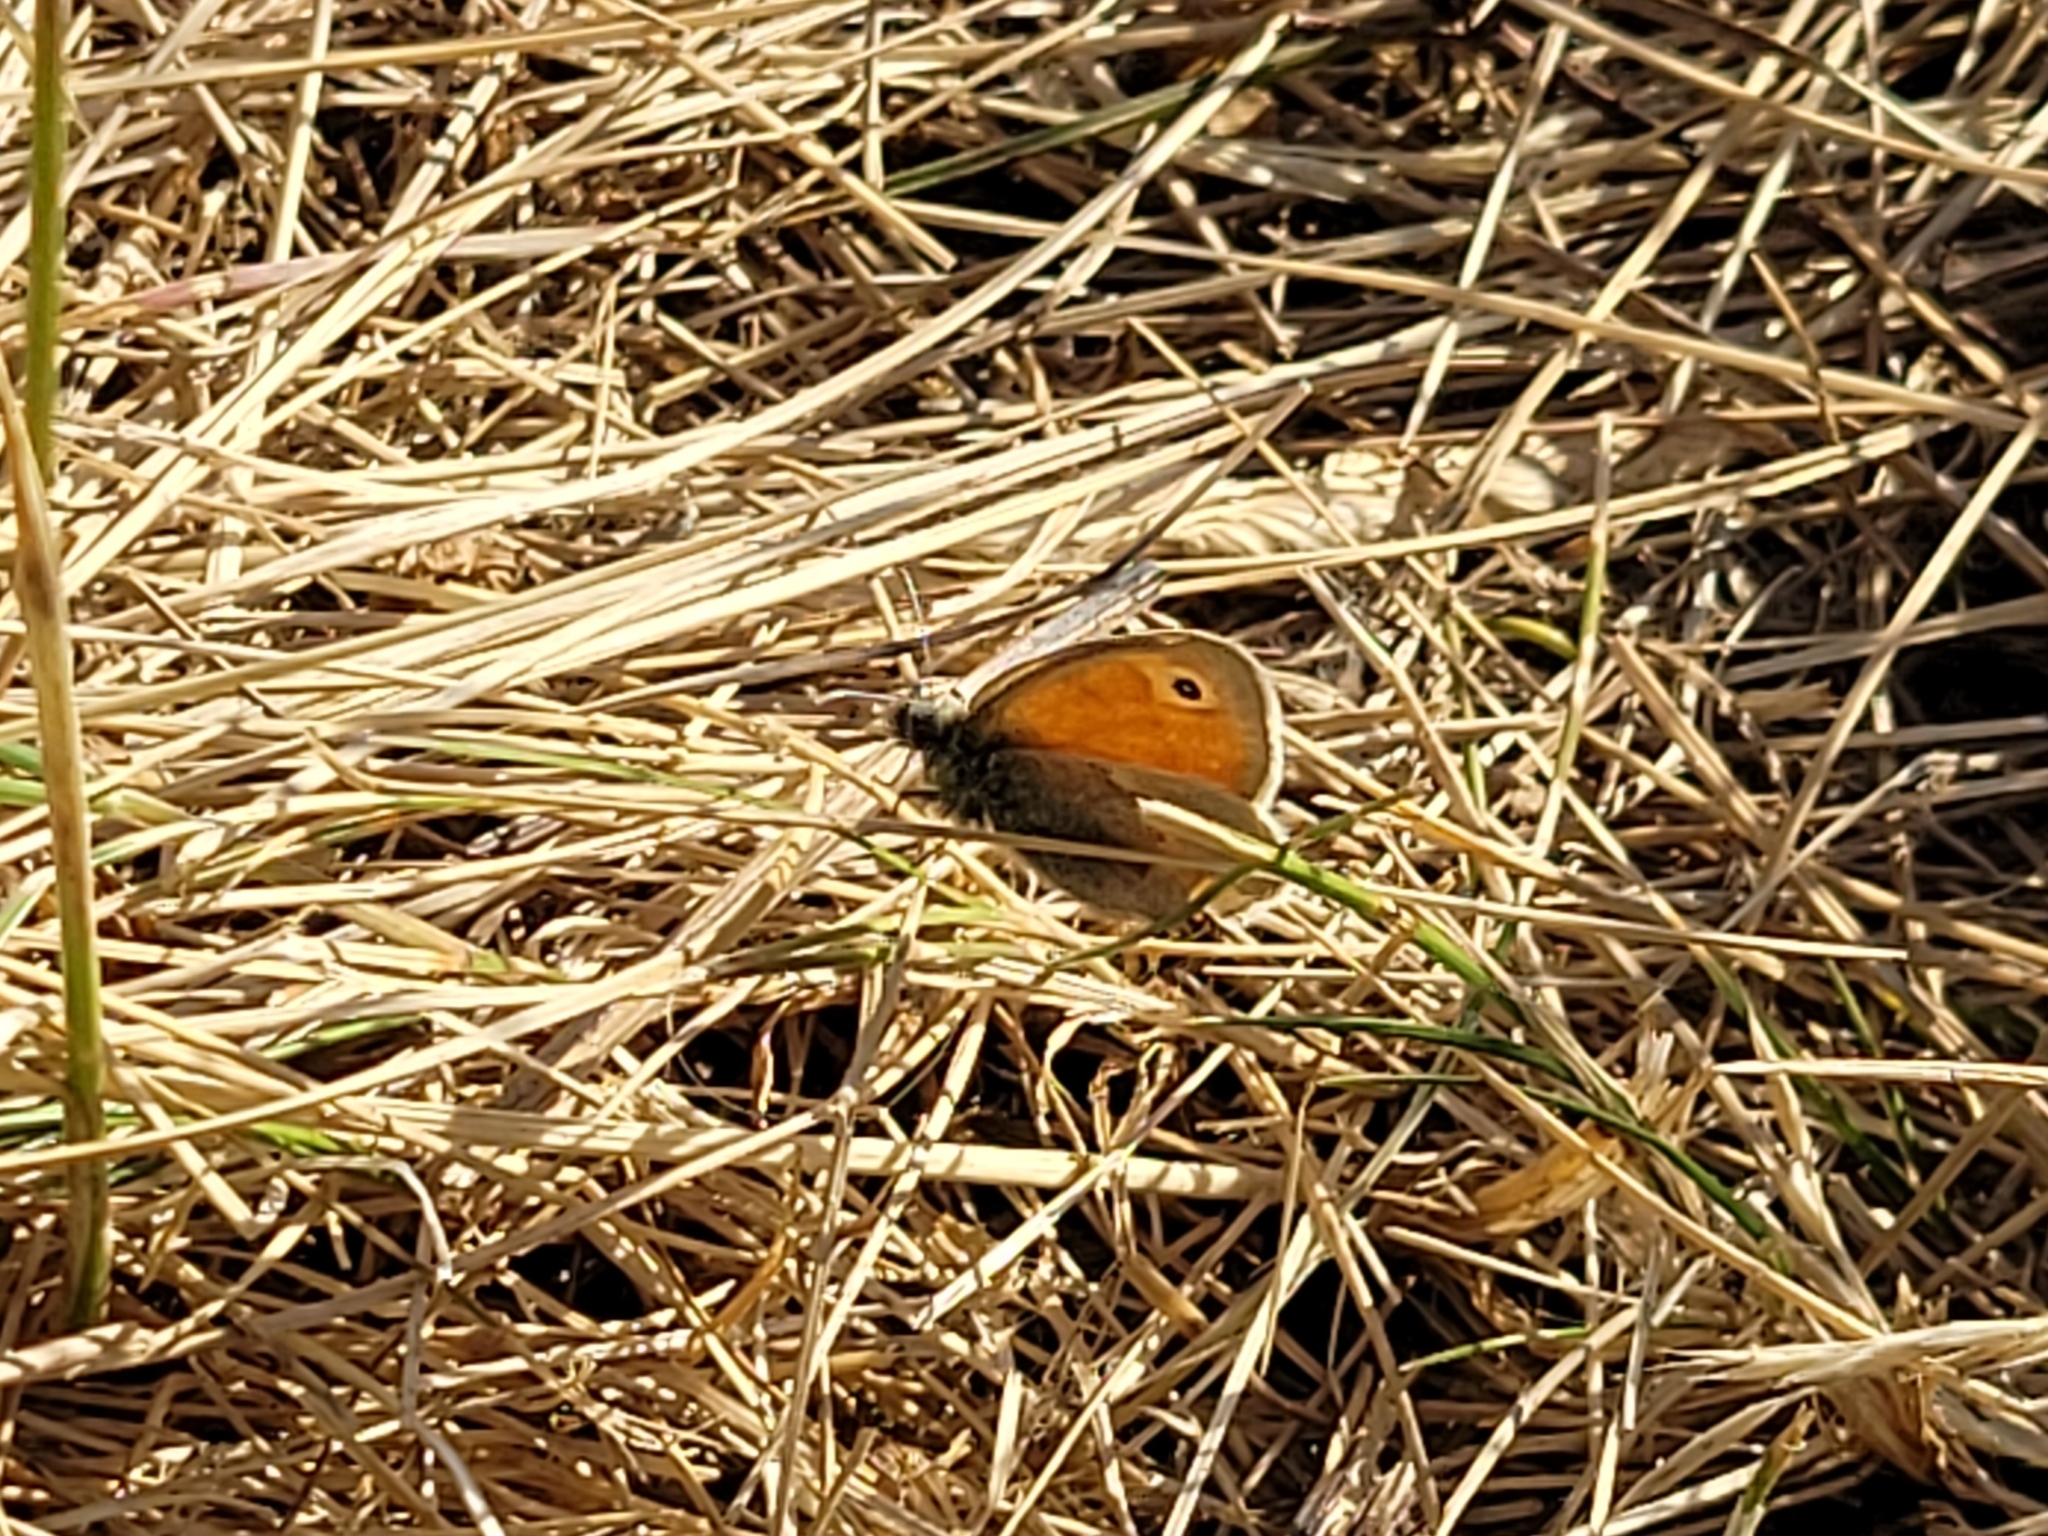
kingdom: Animalia
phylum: Arthropoda
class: Insecta
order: Lepidoptera
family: Nymphalidae
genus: Coenonympha
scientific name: Coenonympha pamphilus
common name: Small heath
